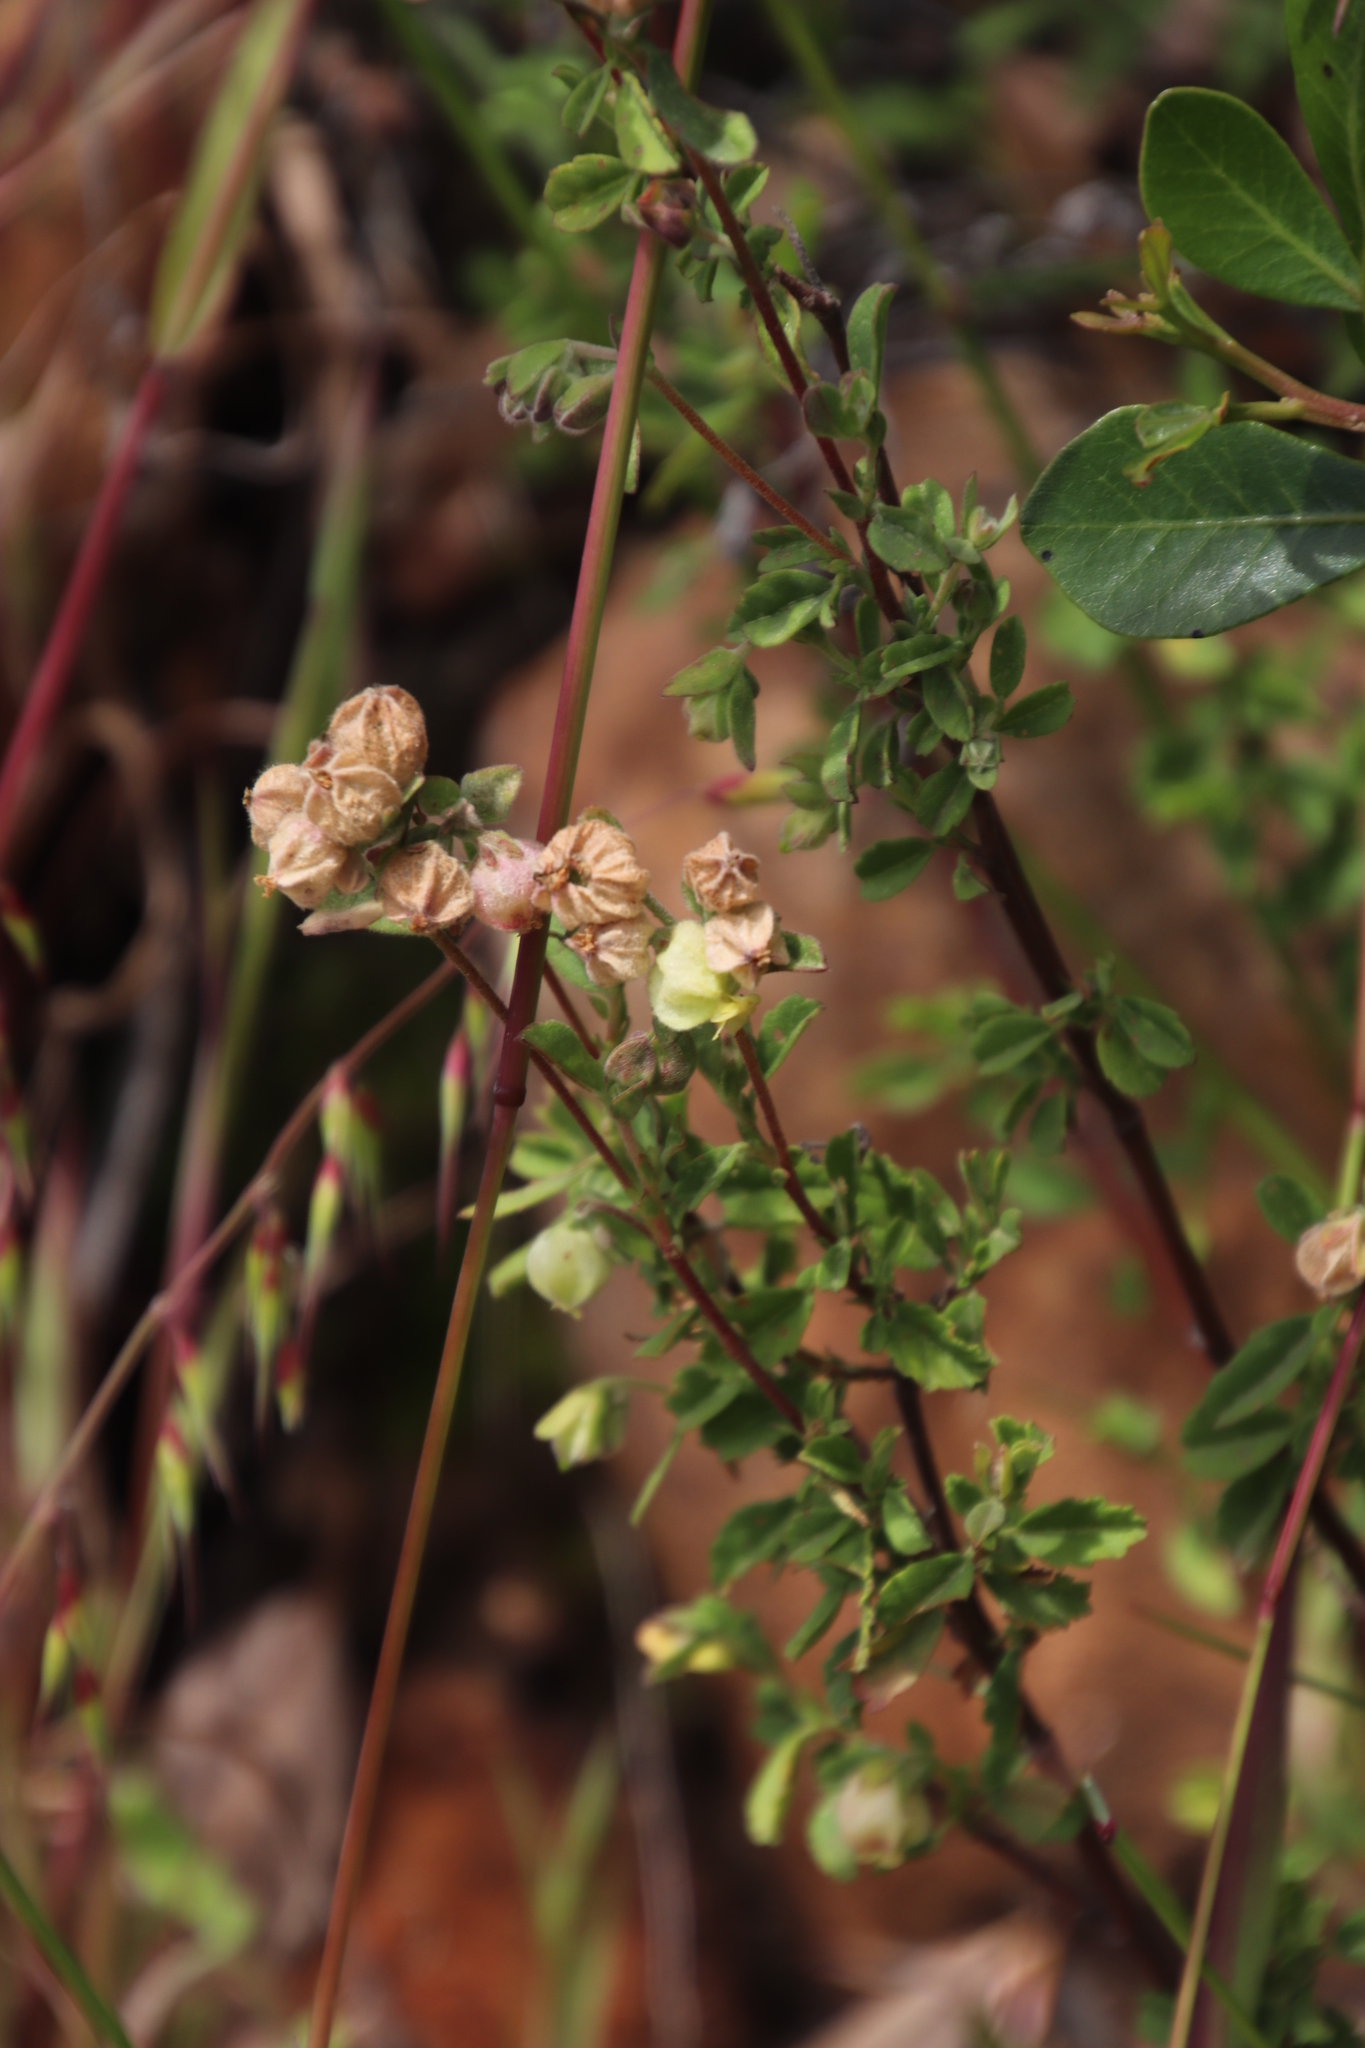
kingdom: Plantae
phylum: Tracheophyta
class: Magnoliopsida
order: Malvales
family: Malvaceae
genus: Hermannia
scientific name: Hermannia hyssopifolia
